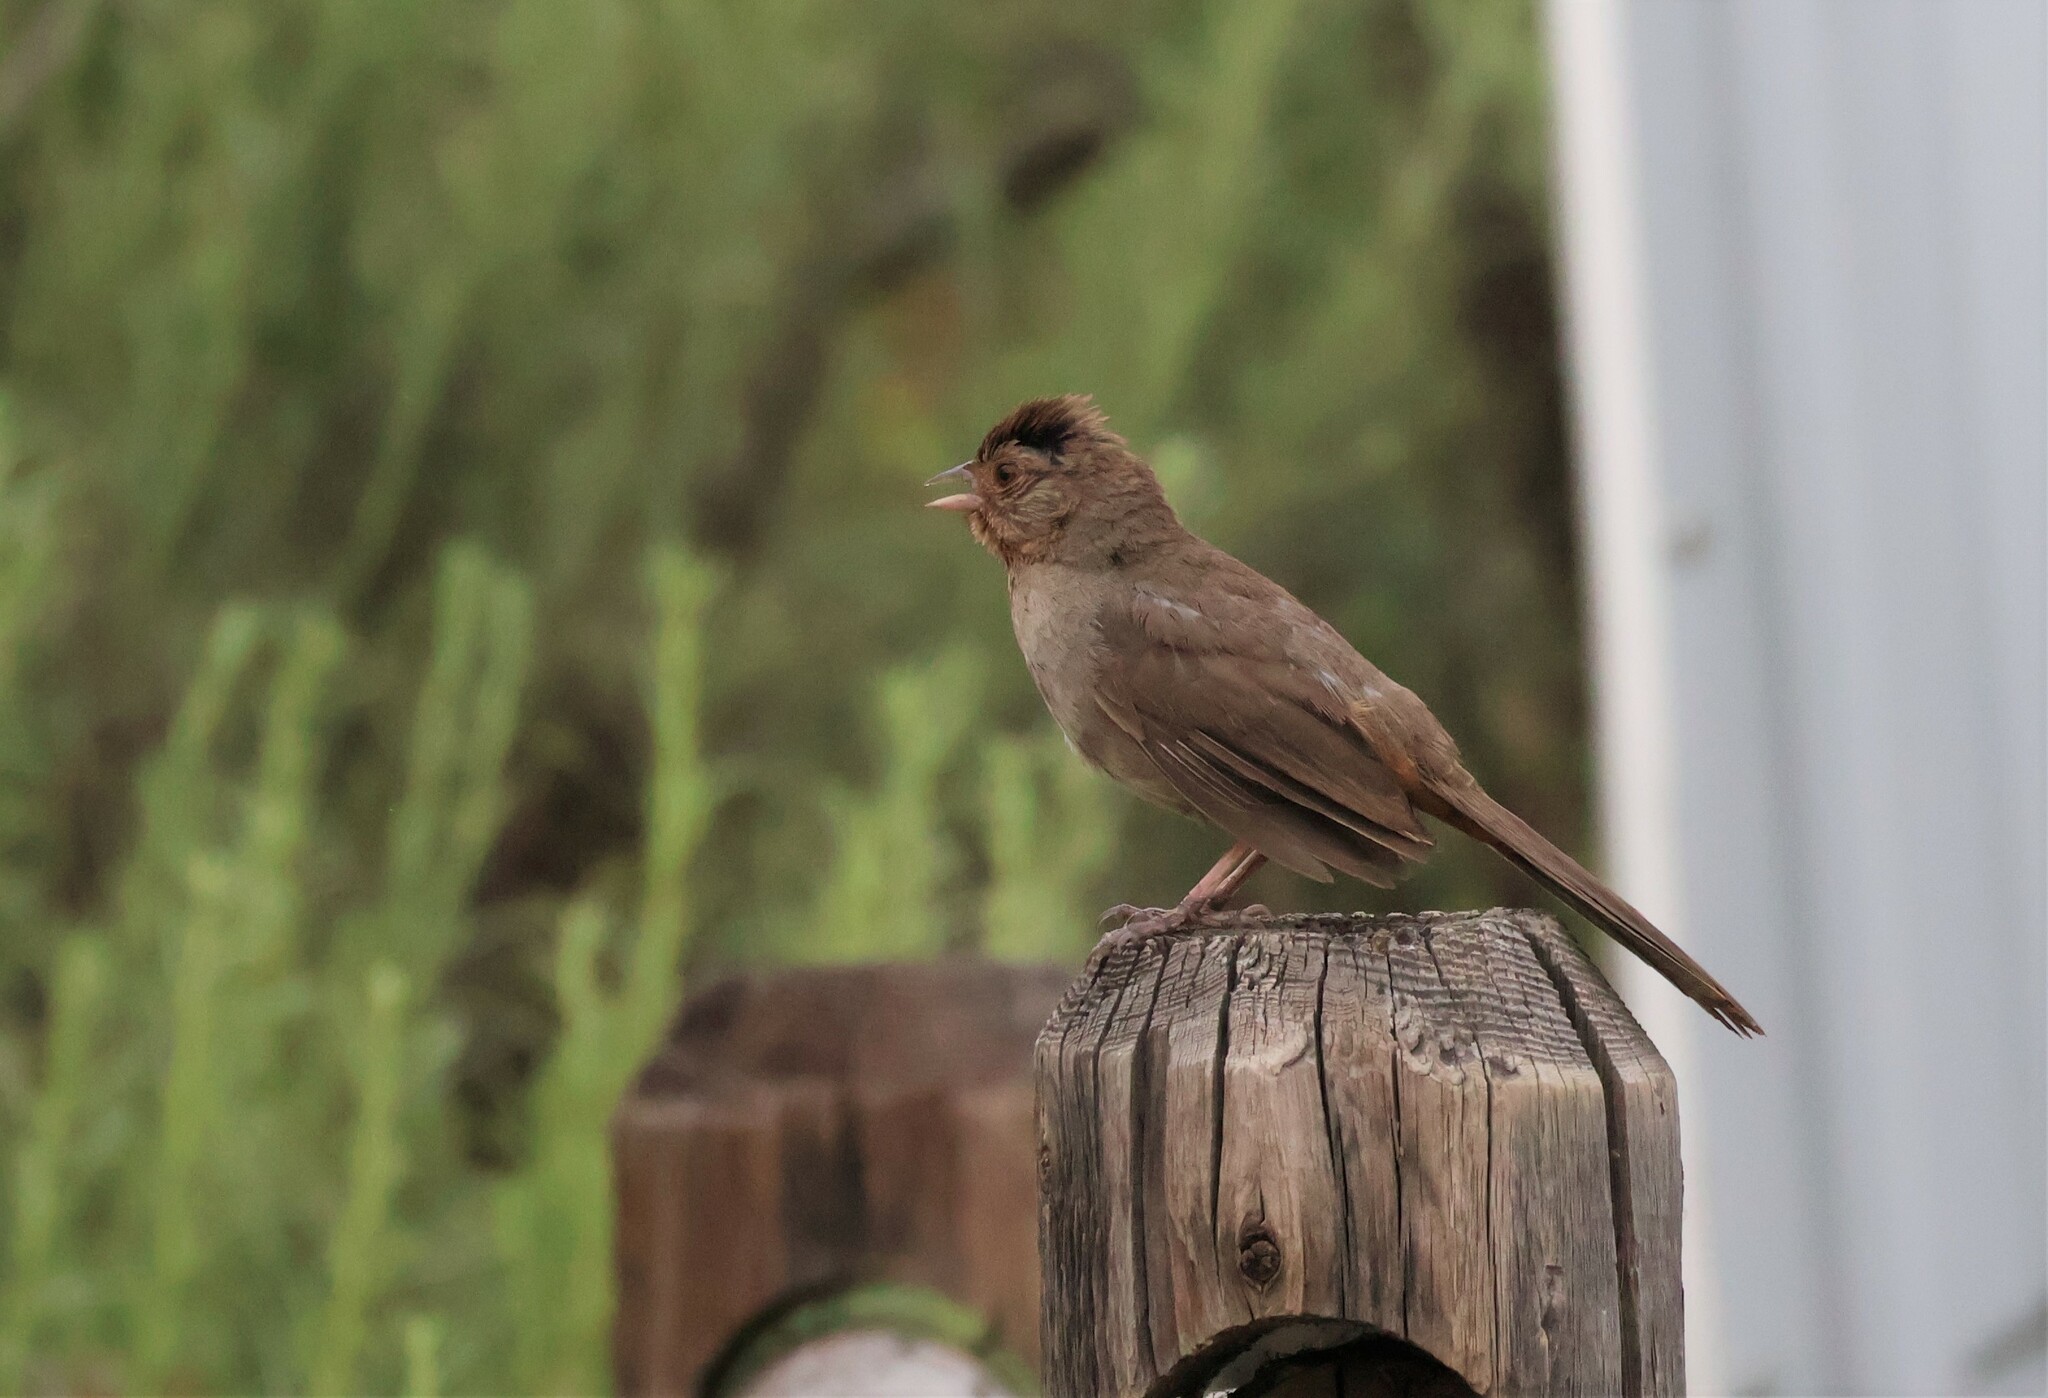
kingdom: Animalia
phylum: Chordata
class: Aves
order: Passeriformes
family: Passerellidae
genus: Melozone
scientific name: Melozone crissalis
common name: California towhee
